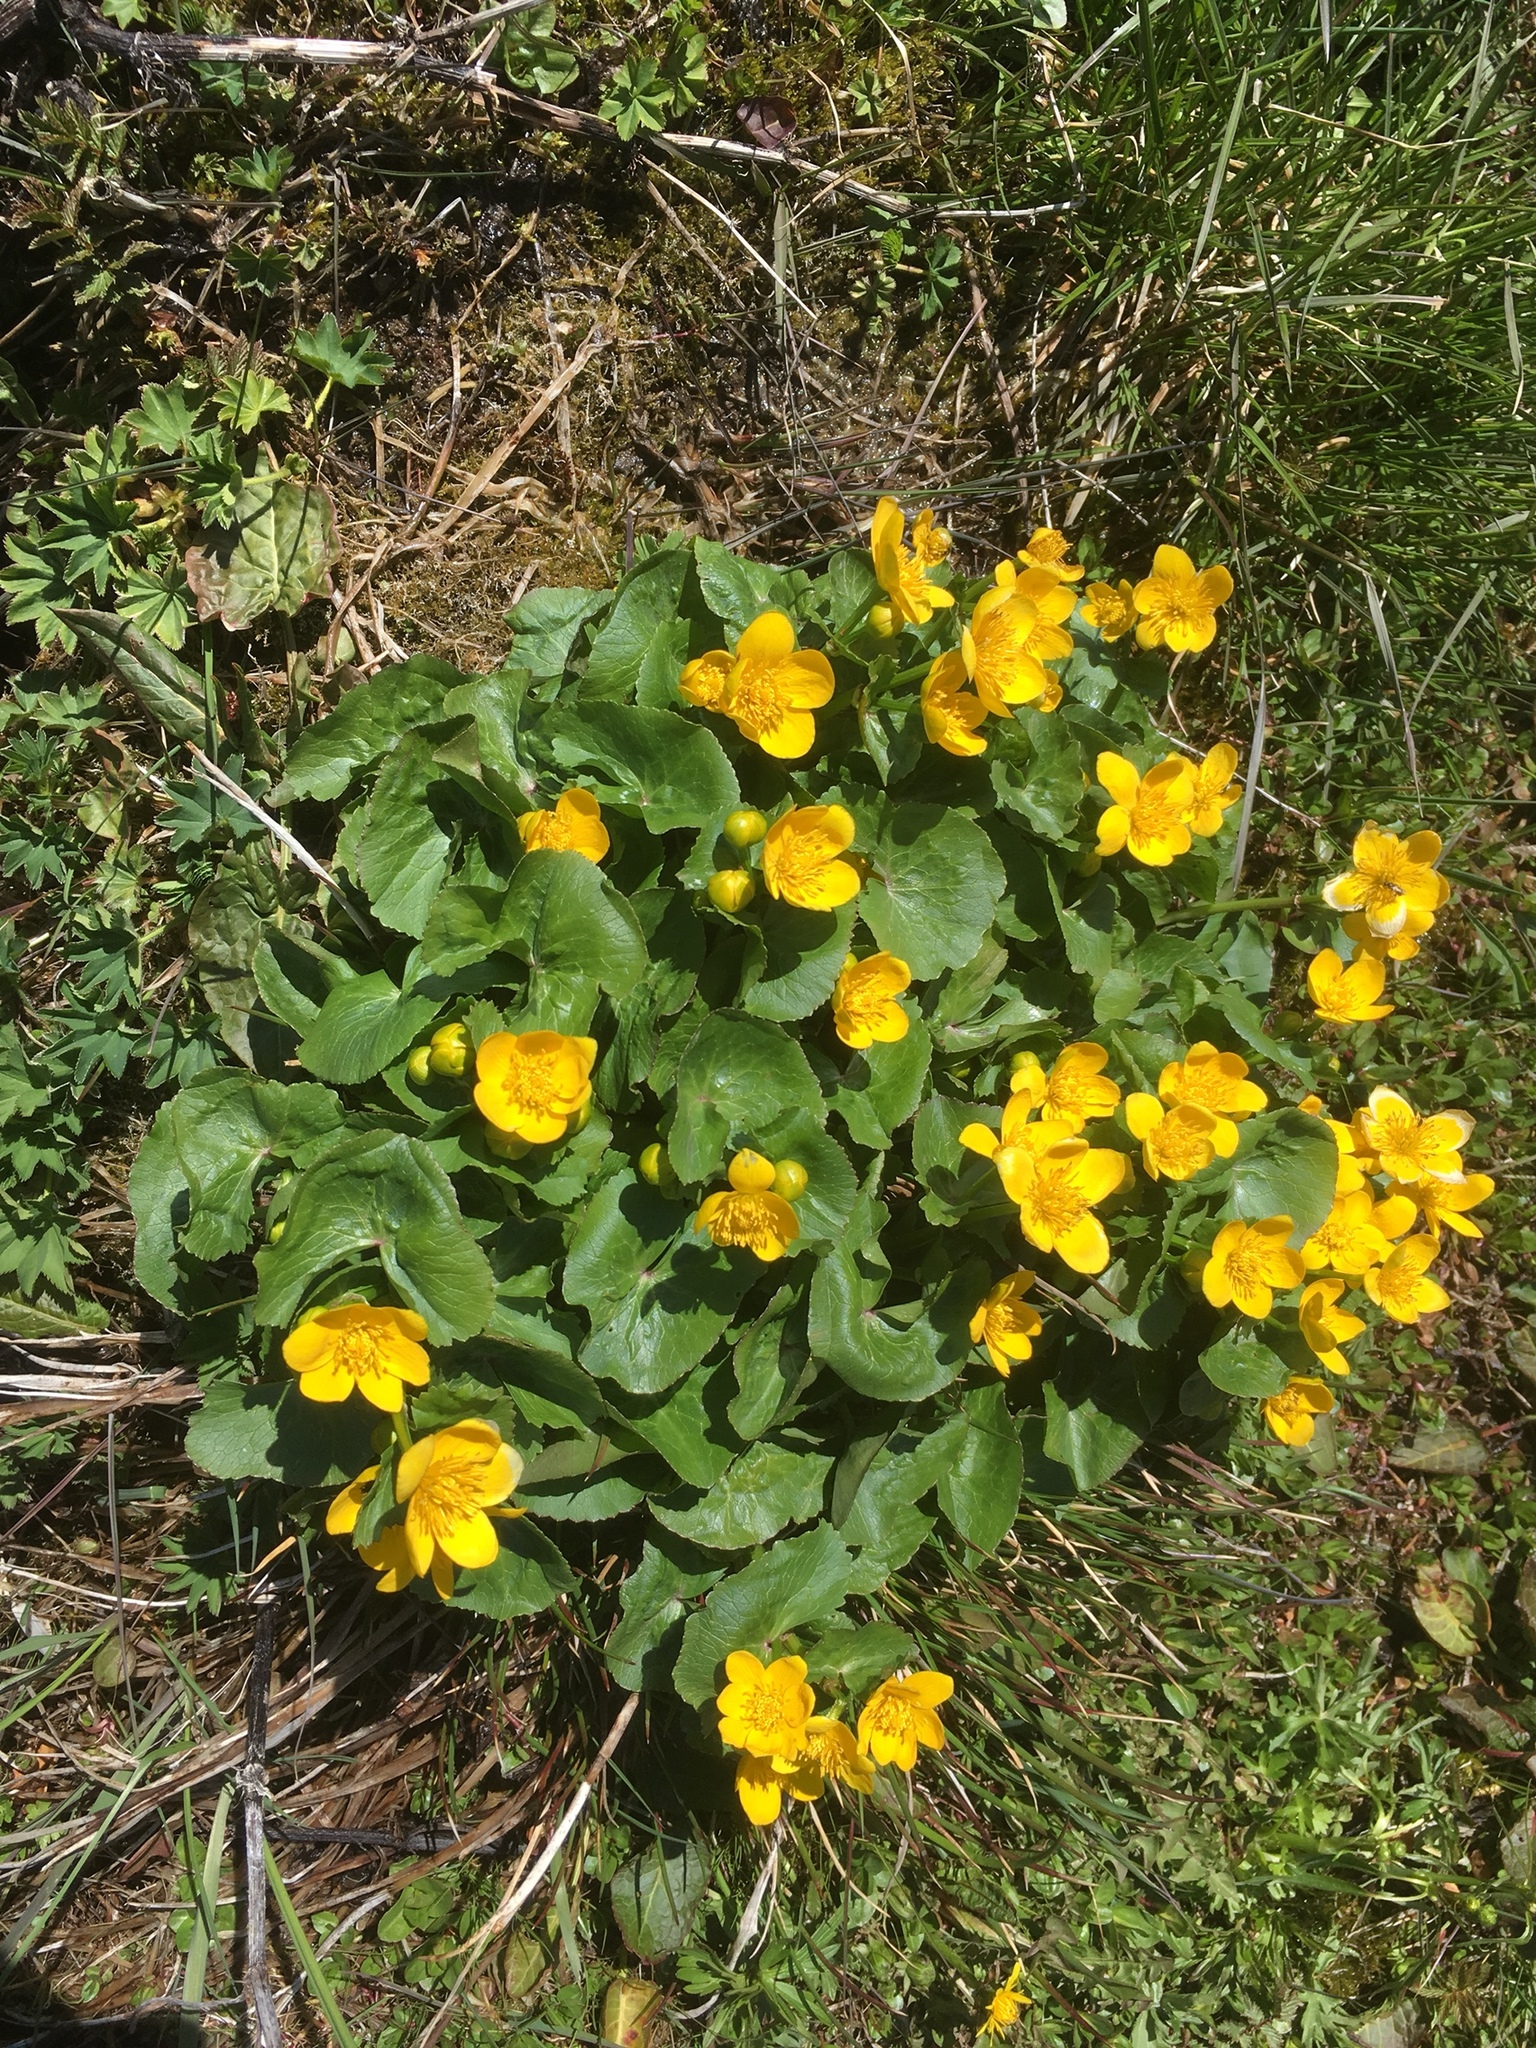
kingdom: Plantae
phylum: Tracheophyta
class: Magnoliopsida
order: Ranunculales
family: Ranunculaceae
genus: Caltha
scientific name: Caltha palustris
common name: Marsh marigold
